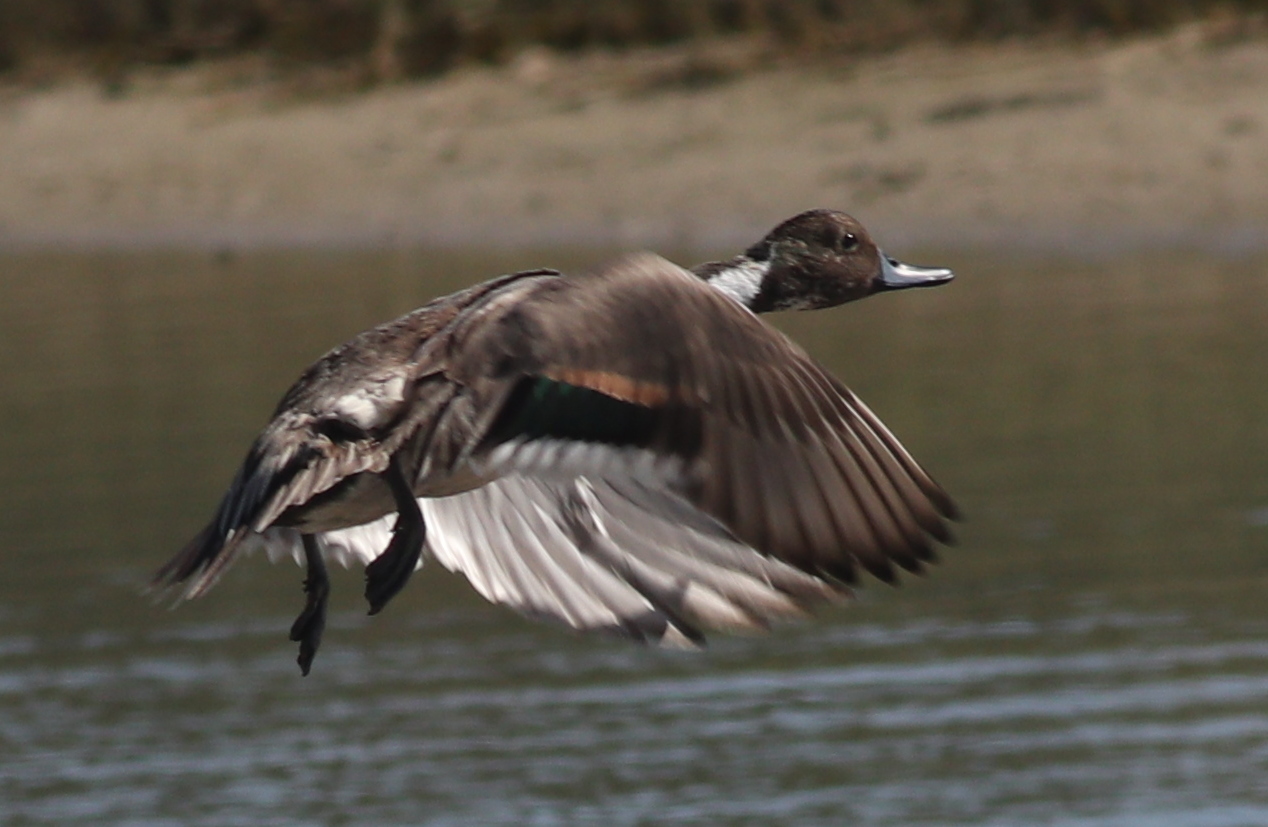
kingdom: Animalia
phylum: Chordata
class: Aves
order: Anseriformes
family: Anatidae
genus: Anas
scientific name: Anas acuta
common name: Northern pintail
